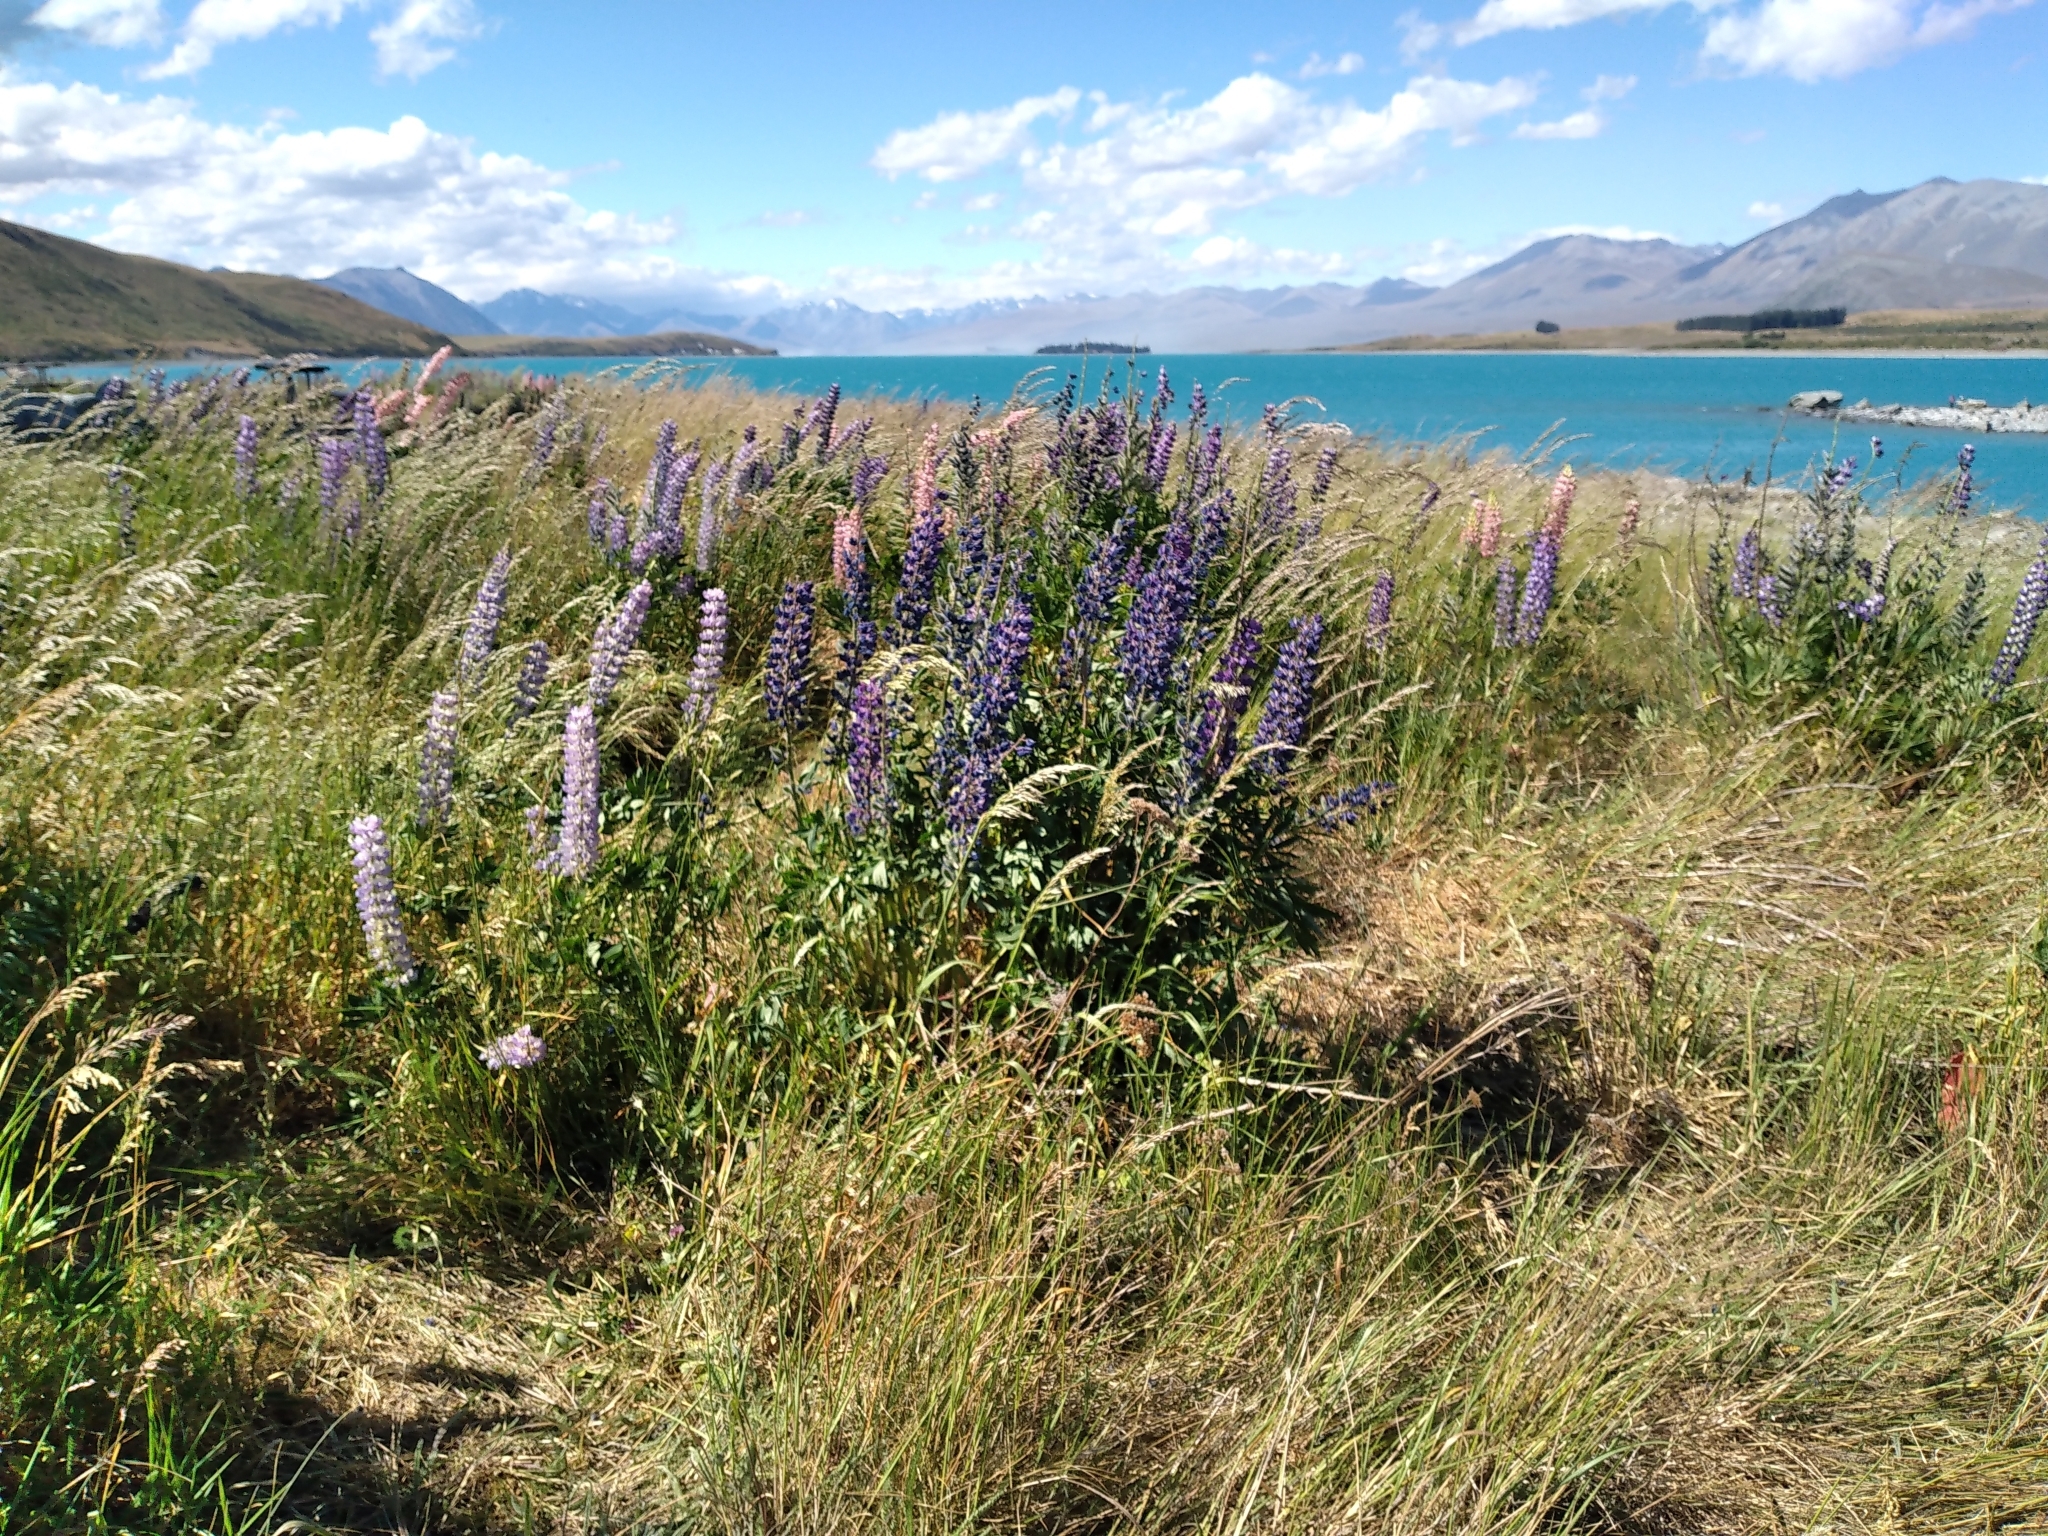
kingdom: Plantae
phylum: Tracheophyta
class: Magnoliopsida
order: Fabales
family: Fabaceae
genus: Lupinus
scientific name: Lupinus polyphyllus
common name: Garden lupin
